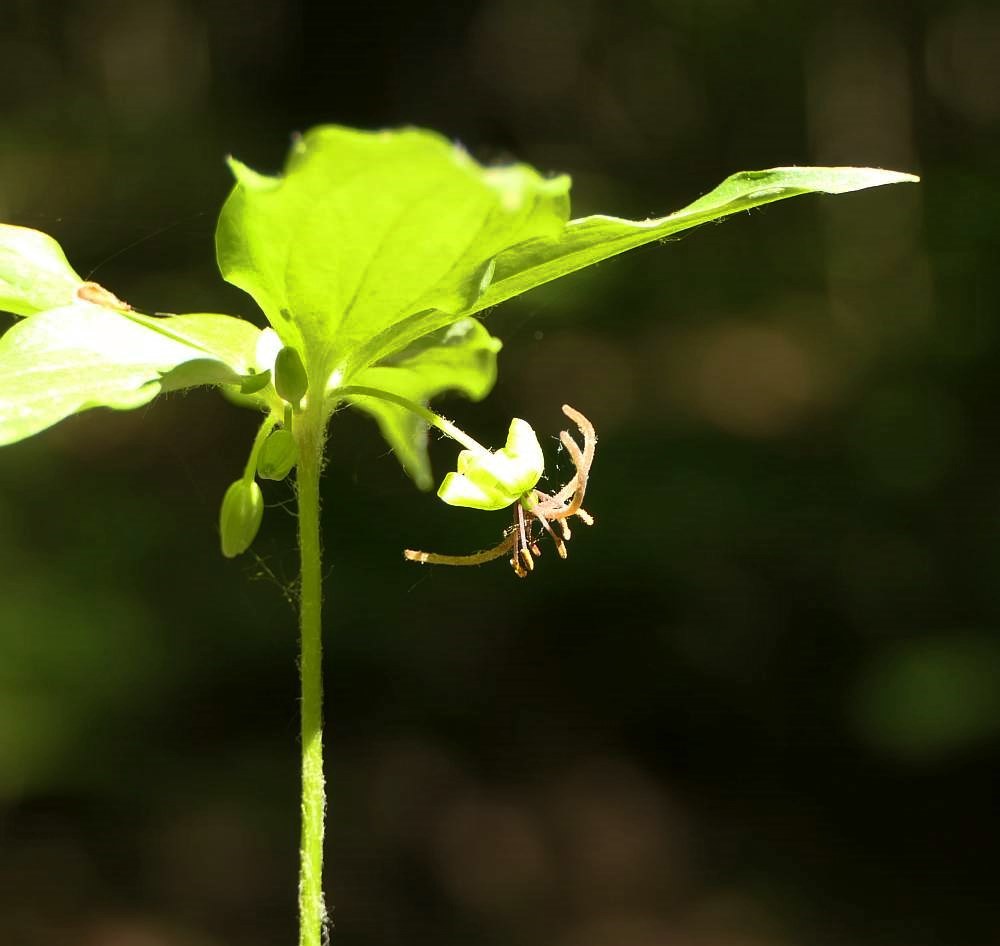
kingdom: Plantae
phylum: Tracheophyta
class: Liliopsida
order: Liliales
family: Liliaceae
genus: Medeola
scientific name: Medeola virginiana
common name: Indian cucumber-root
